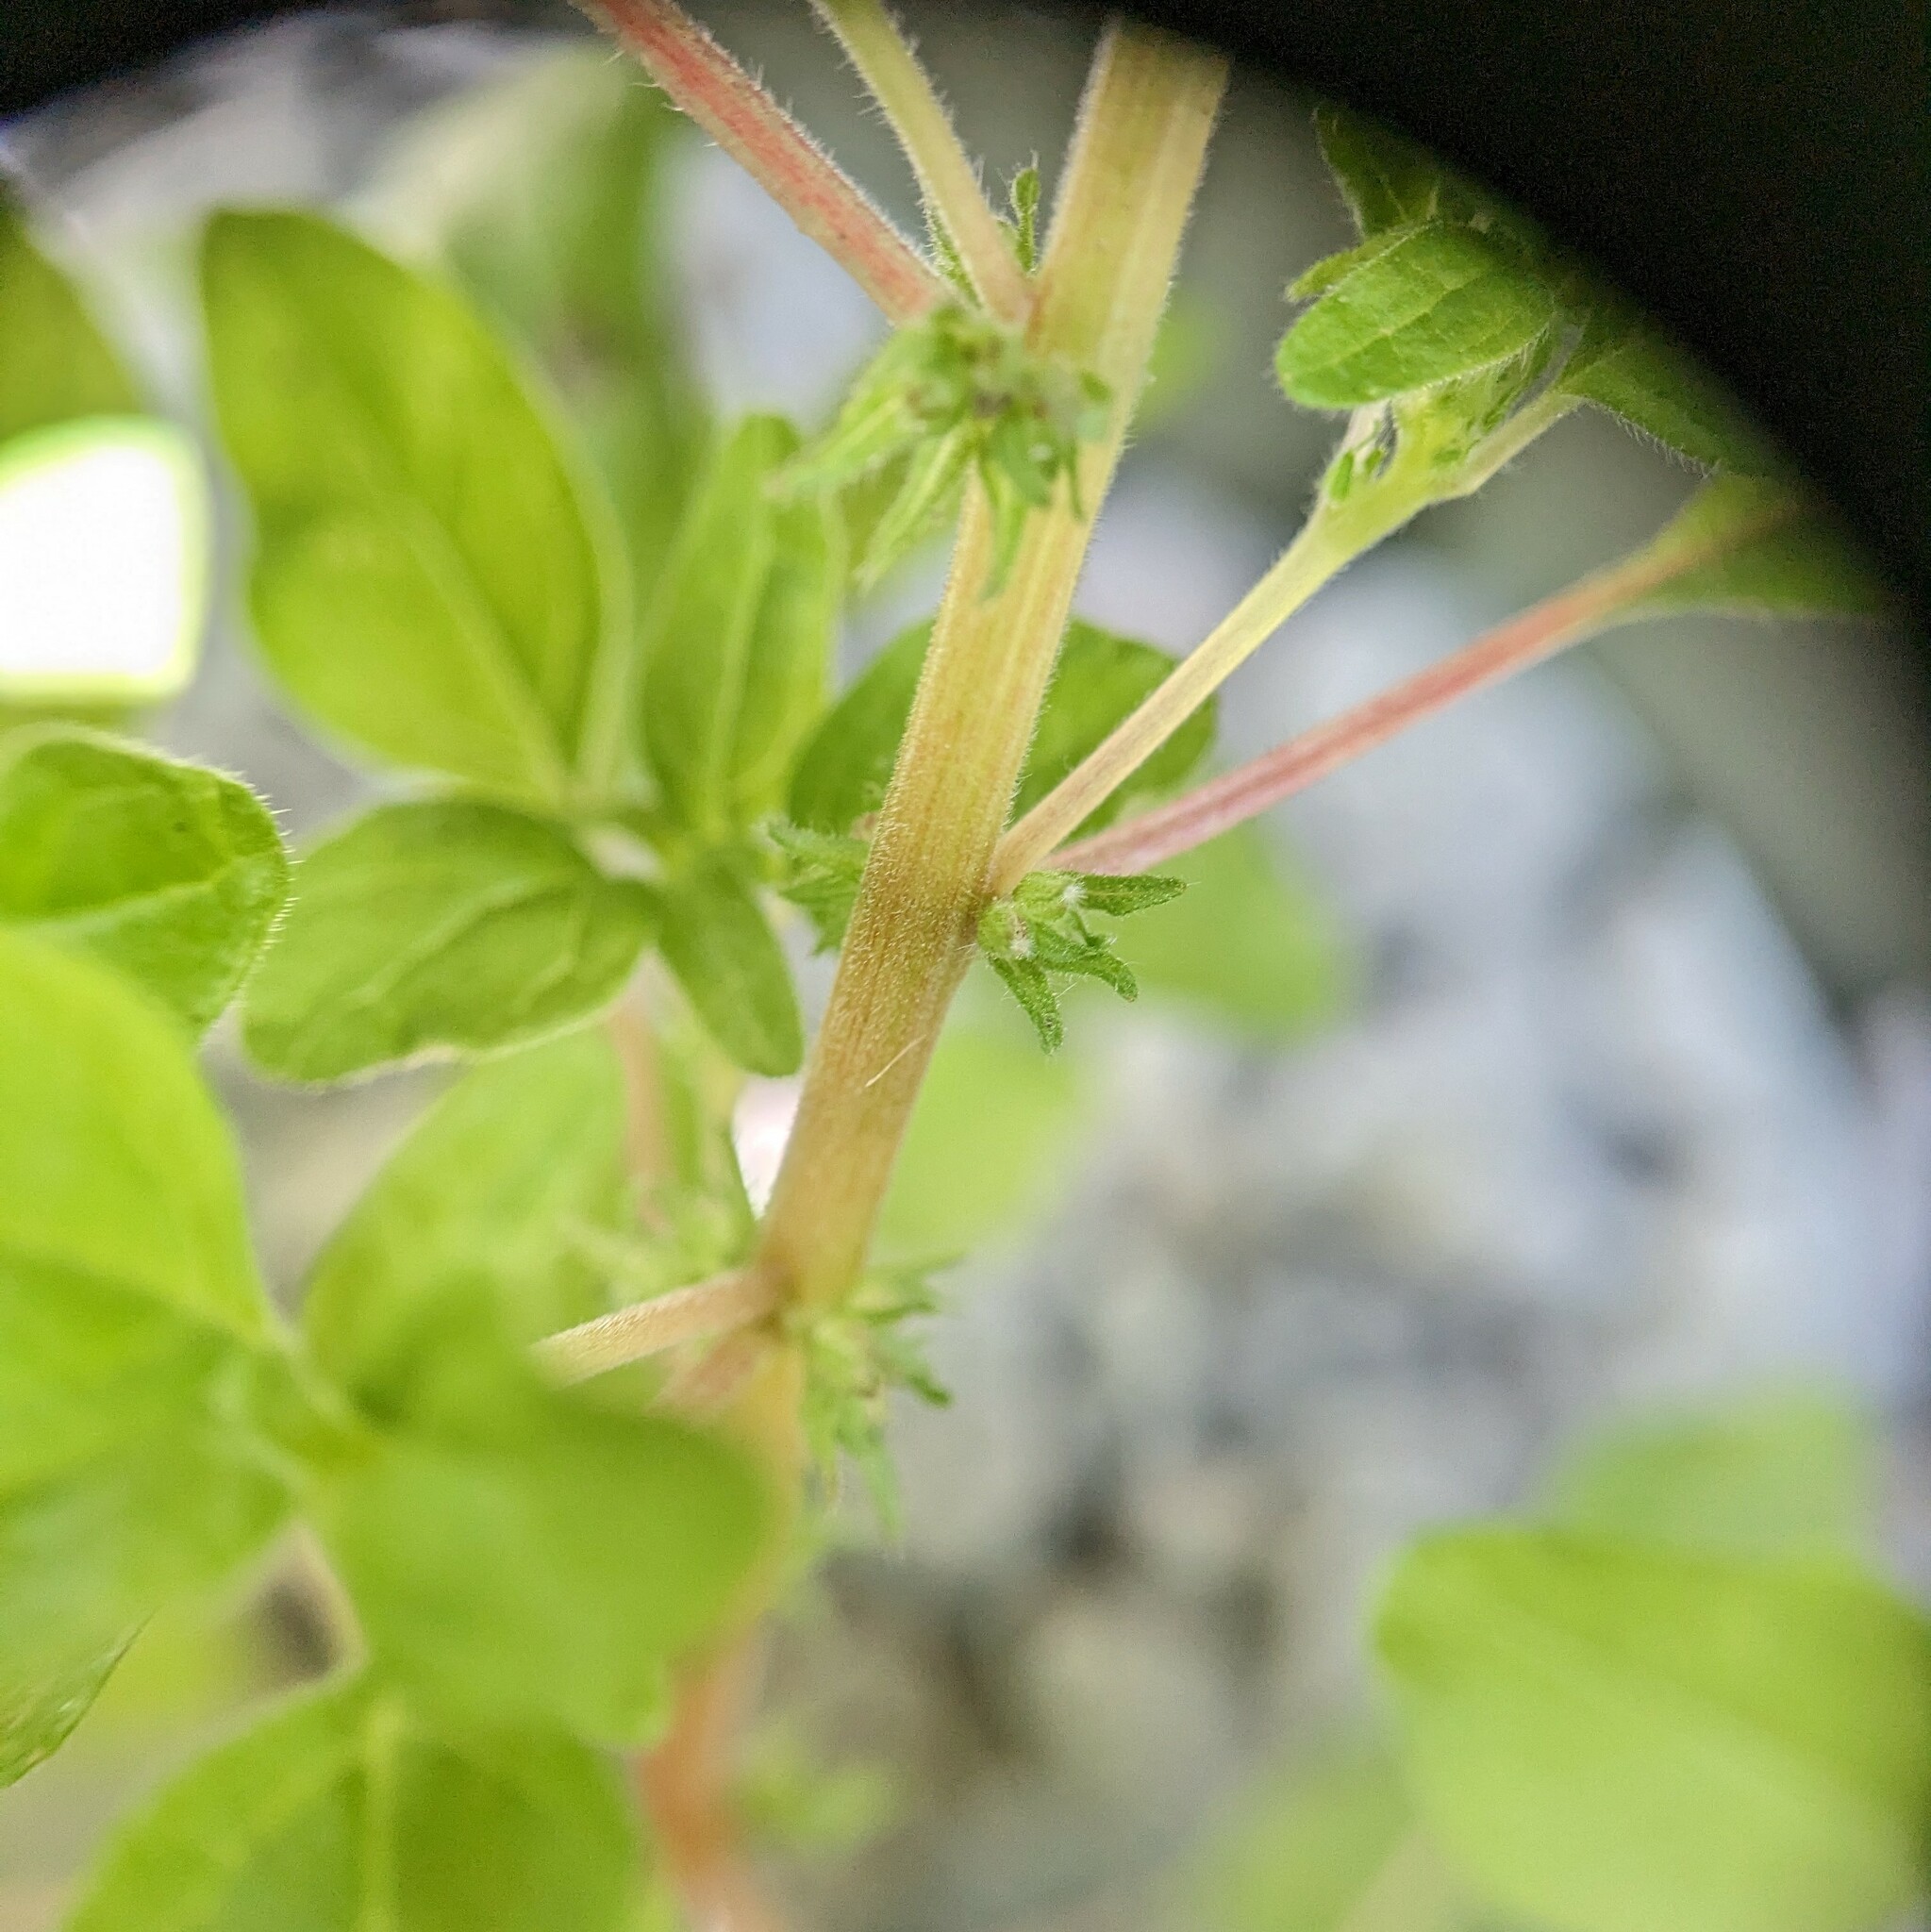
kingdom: Plantae
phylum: Tracheophyta
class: Magnoliopsida
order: Rosales
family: Urticaceae
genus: Parietaria
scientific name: Parietaria pensylvanica
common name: Pennsylvania pellitory
